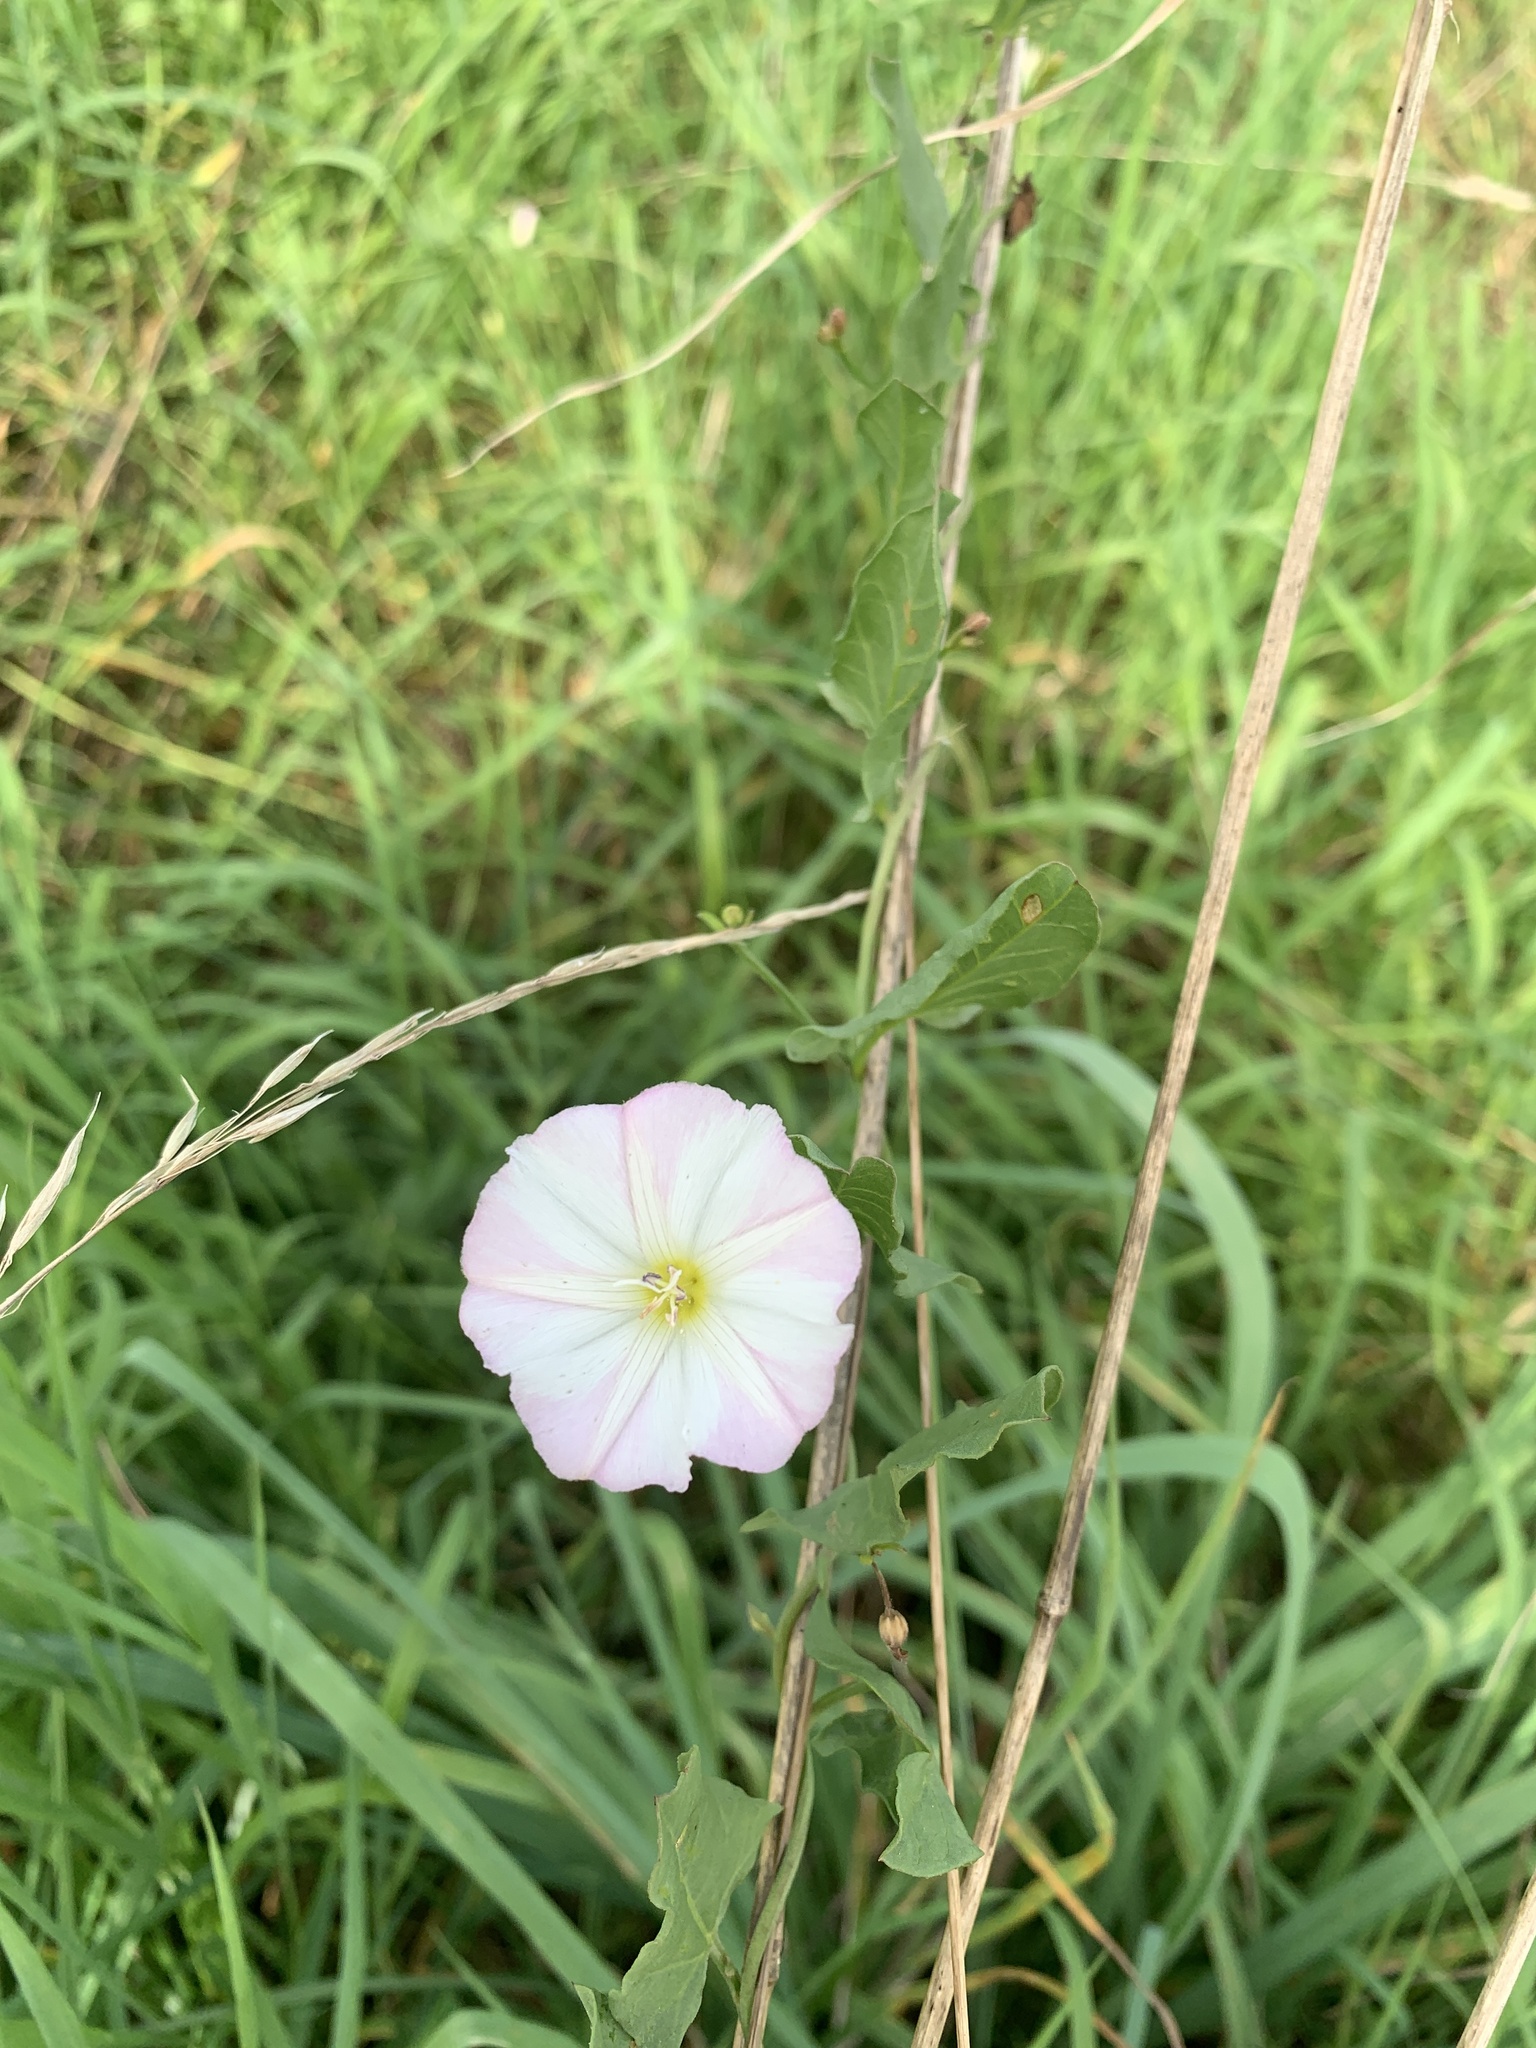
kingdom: Plantae
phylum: Tracheophyta
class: Magnoliopsida
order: Solanales
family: Convolvulaceae
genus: Convolvulus
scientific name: Convolvulus arvensis
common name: Field bindweed
